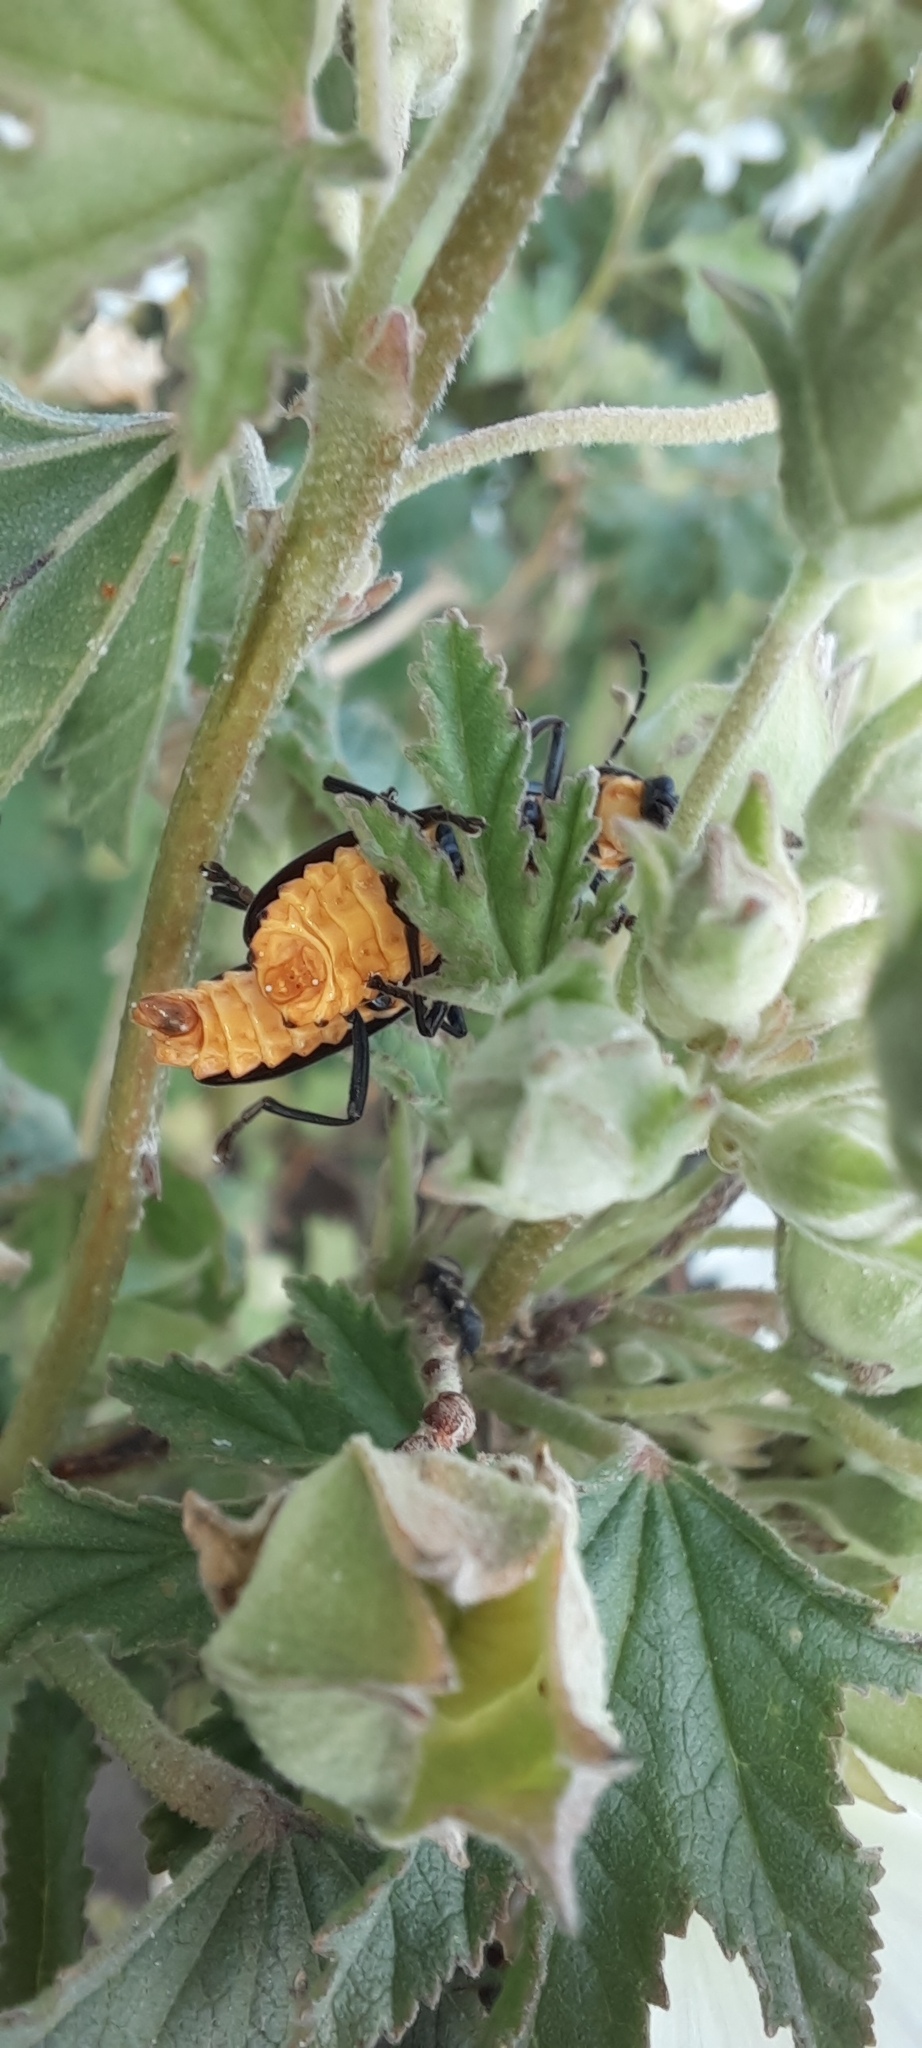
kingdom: Animalia
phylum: Arthropoda
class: Insecta
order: Coleoptera
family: Cantharidae
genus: Chauliognathus
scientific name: Chauliognathus
